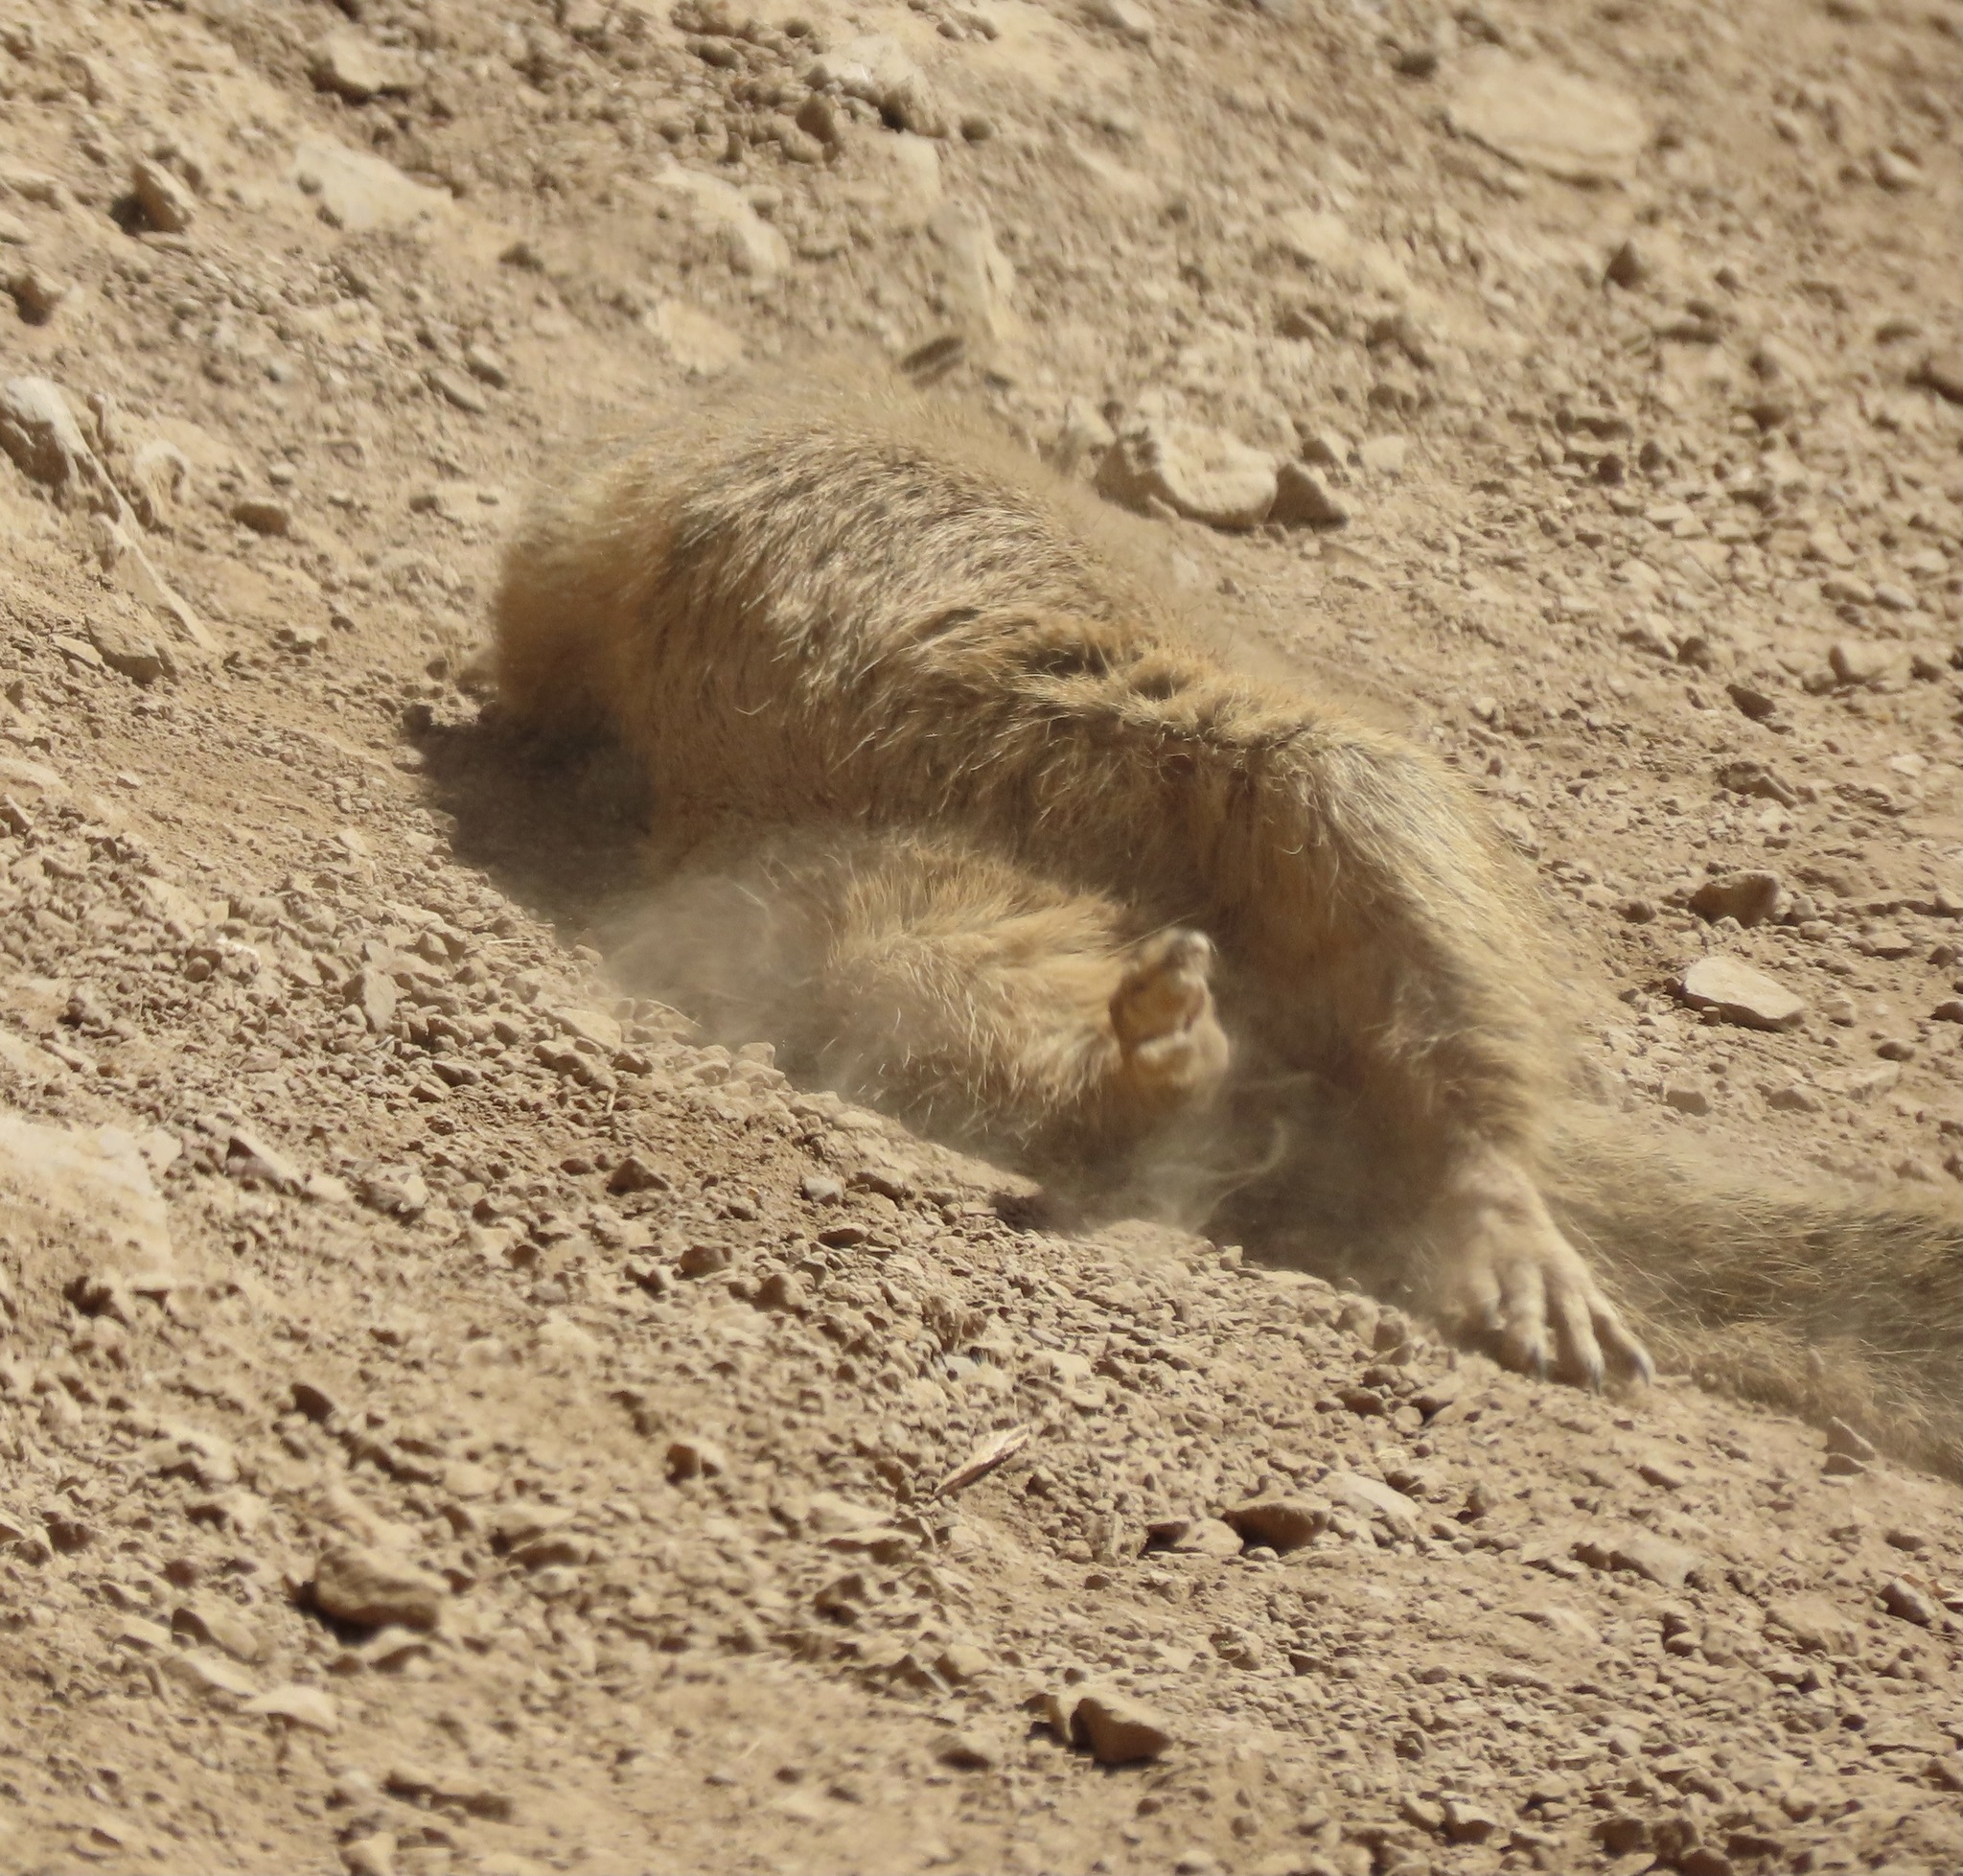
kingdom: Animalia
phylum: Chordata
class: Mammalia
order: Rodentia
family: Sciuridae
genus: Otospermophilus
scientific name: Otospermophilus beecheyi
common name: California ground squirrel
